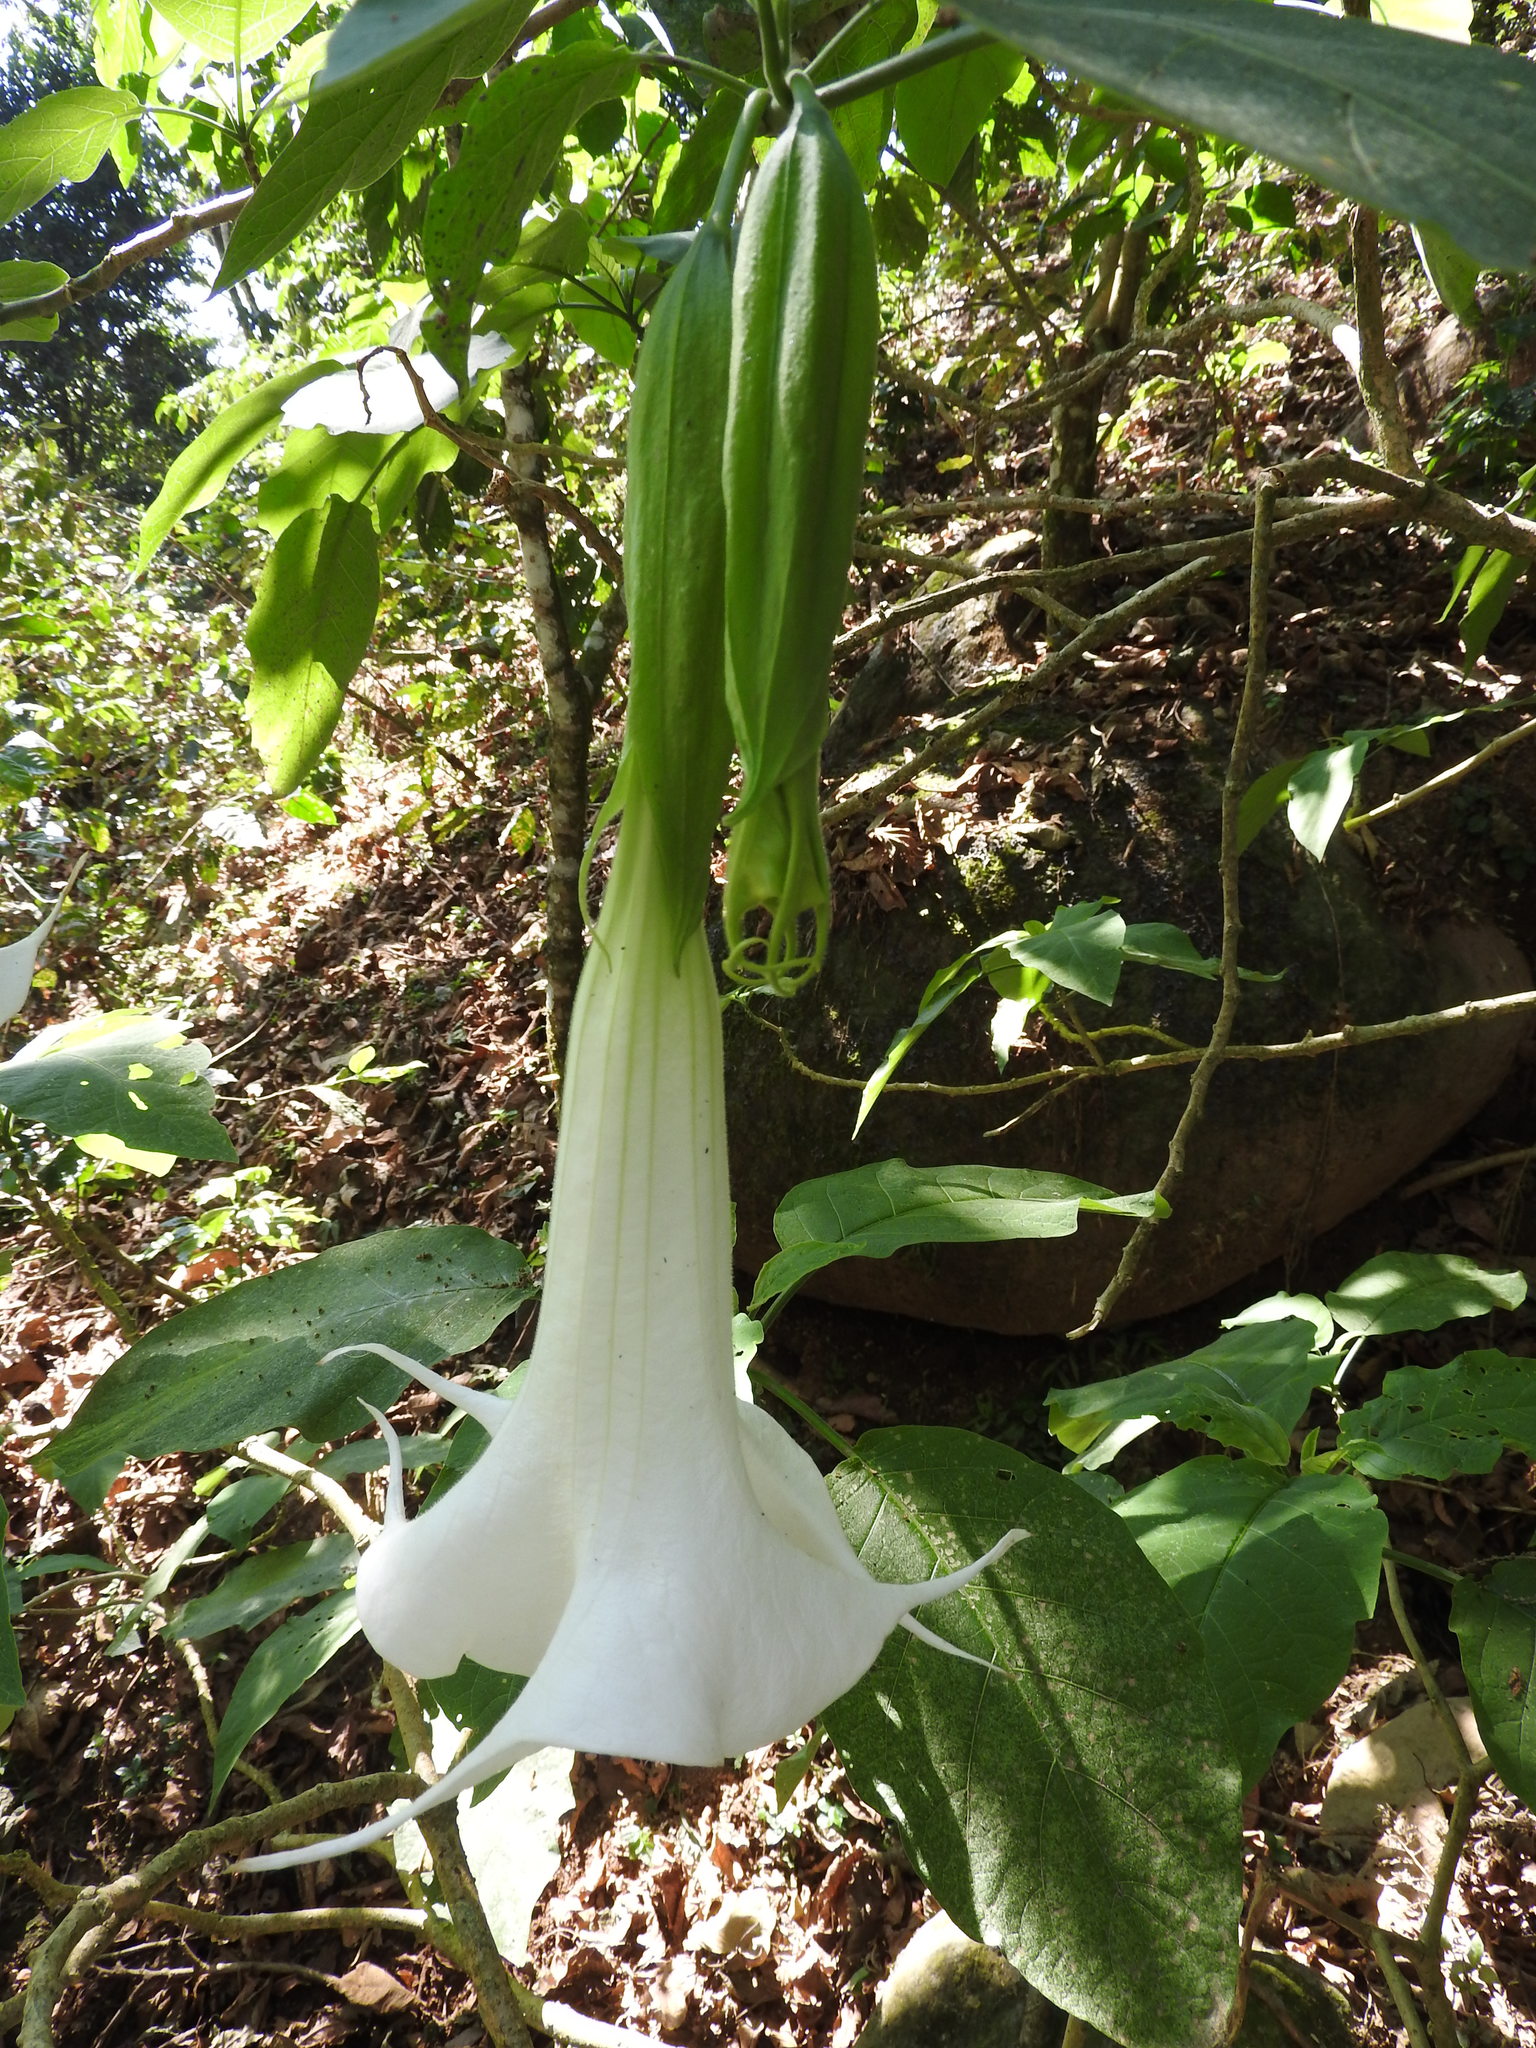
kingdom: Plantae
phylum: Tracheophyta
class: Magnoliopsida
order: Solanales
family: Solanaceae
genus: Brugmansia
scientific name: Brugmansia candida
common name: Angel's-trumpet
